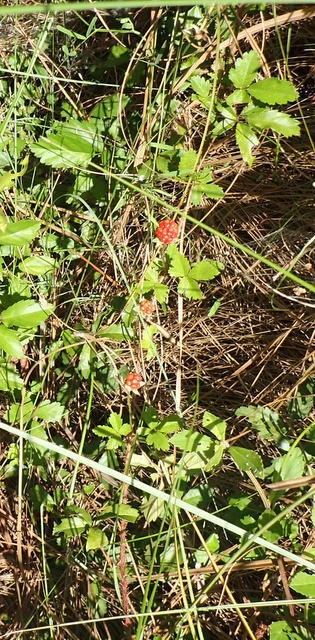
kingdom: Plantae
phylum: Tracheophyta
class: Magnoliopsida
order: Rosales
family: Rosaceae
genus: Rubus
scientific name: Rubus trivialis
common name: Southern dewberry
